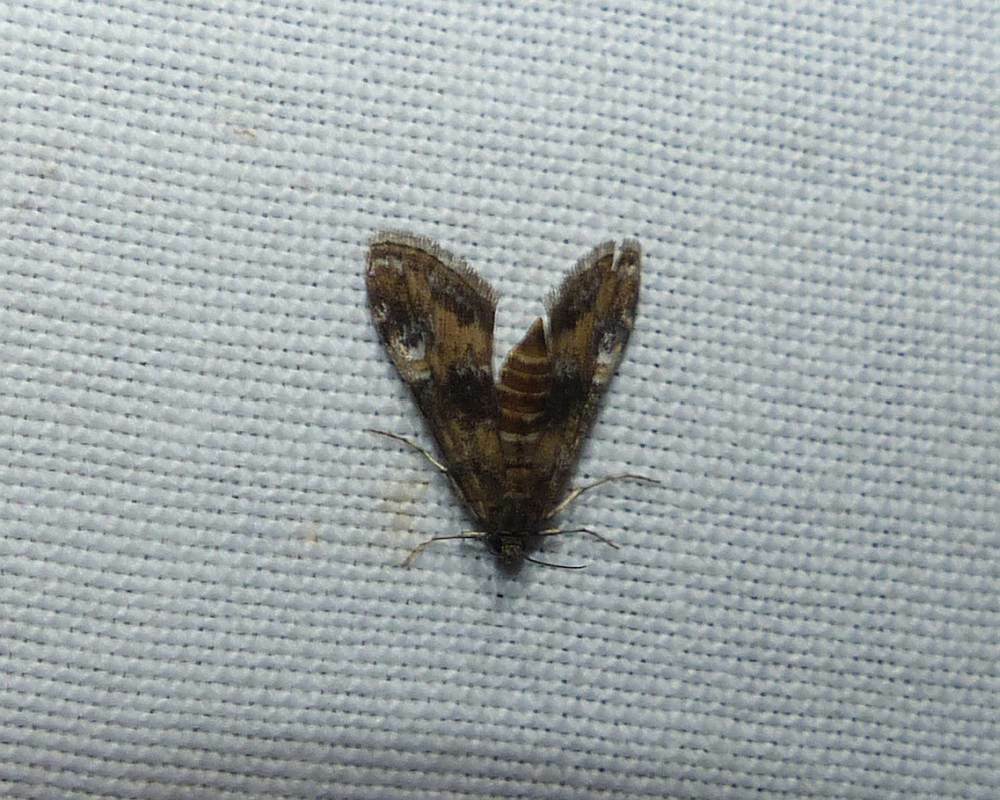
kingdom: Animalia
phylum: Arthropoda
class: Insecta
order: Lepidoptera
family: Crambidae
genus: Elophila
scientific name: Elophila obliteralis
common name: Waterlily leafcutter moth
